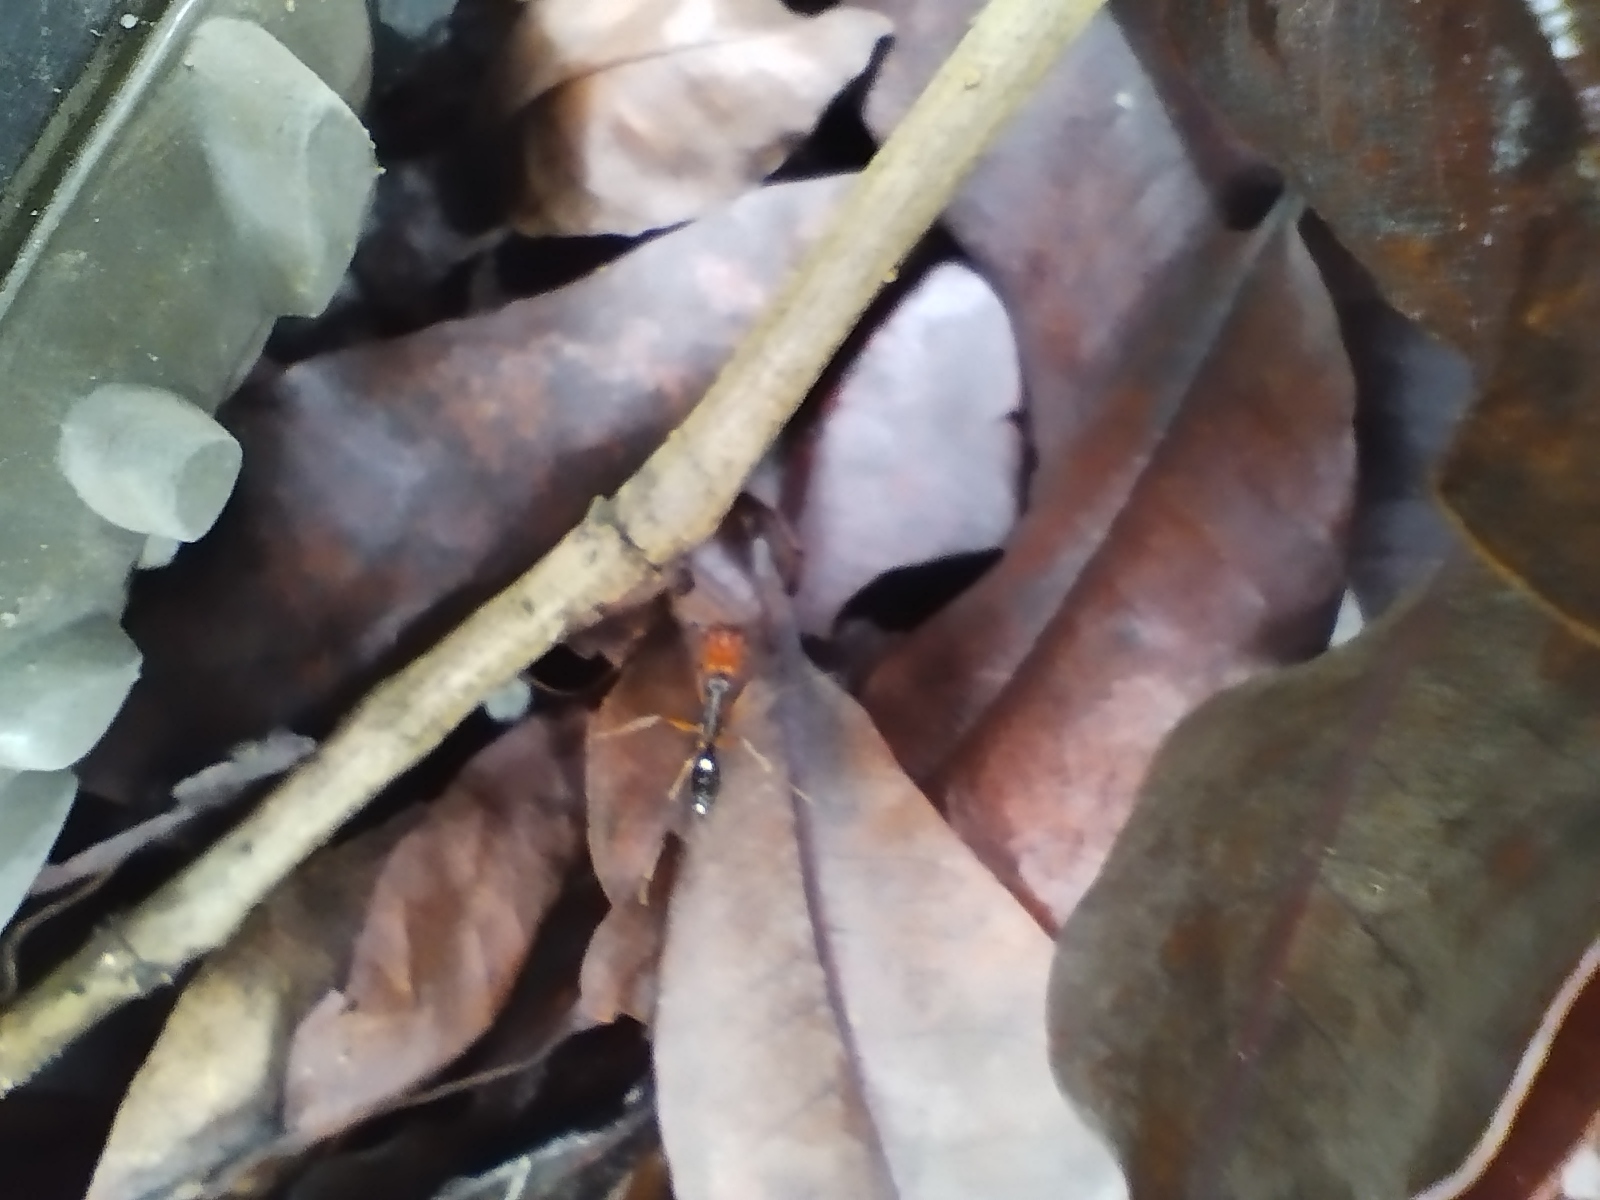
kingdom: Animalia
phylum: Arthropoda
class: Insecta
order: Hymenoptera
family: Formicidae
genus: Odontomachus
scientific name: Odontomachus erythrocephalus
